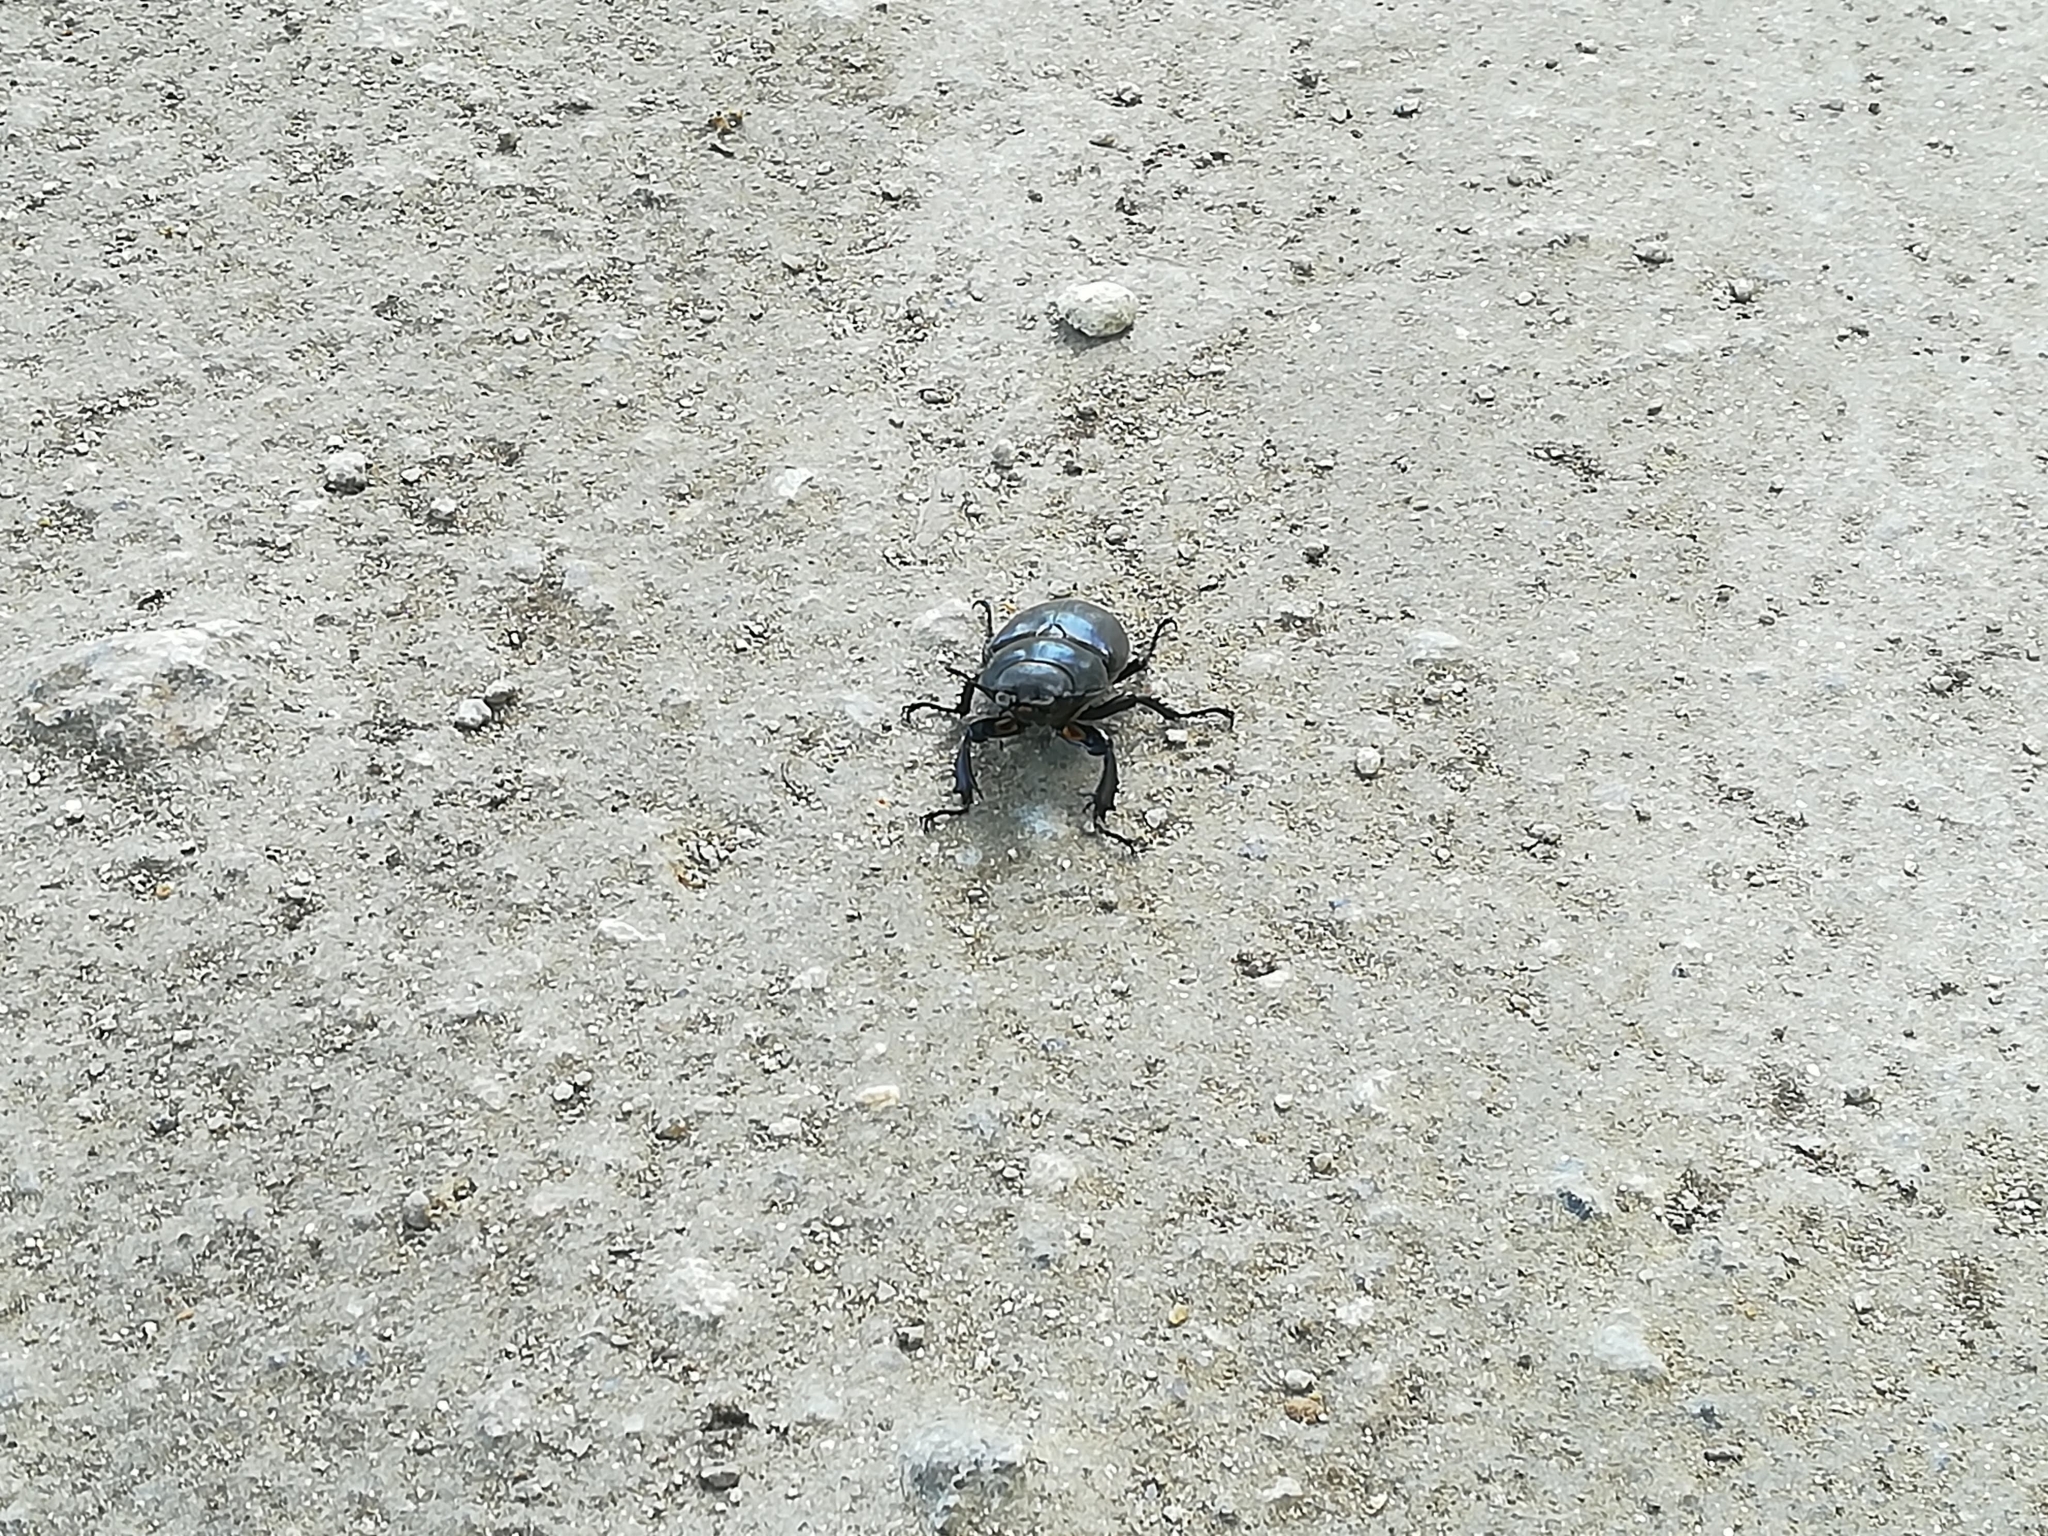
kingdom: Animalia
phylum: Arthropoda
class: Insecta
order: Coleoptera
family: Lucanidae
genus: Lucanus
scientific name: Lucanus cervus
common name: Stag beetle
